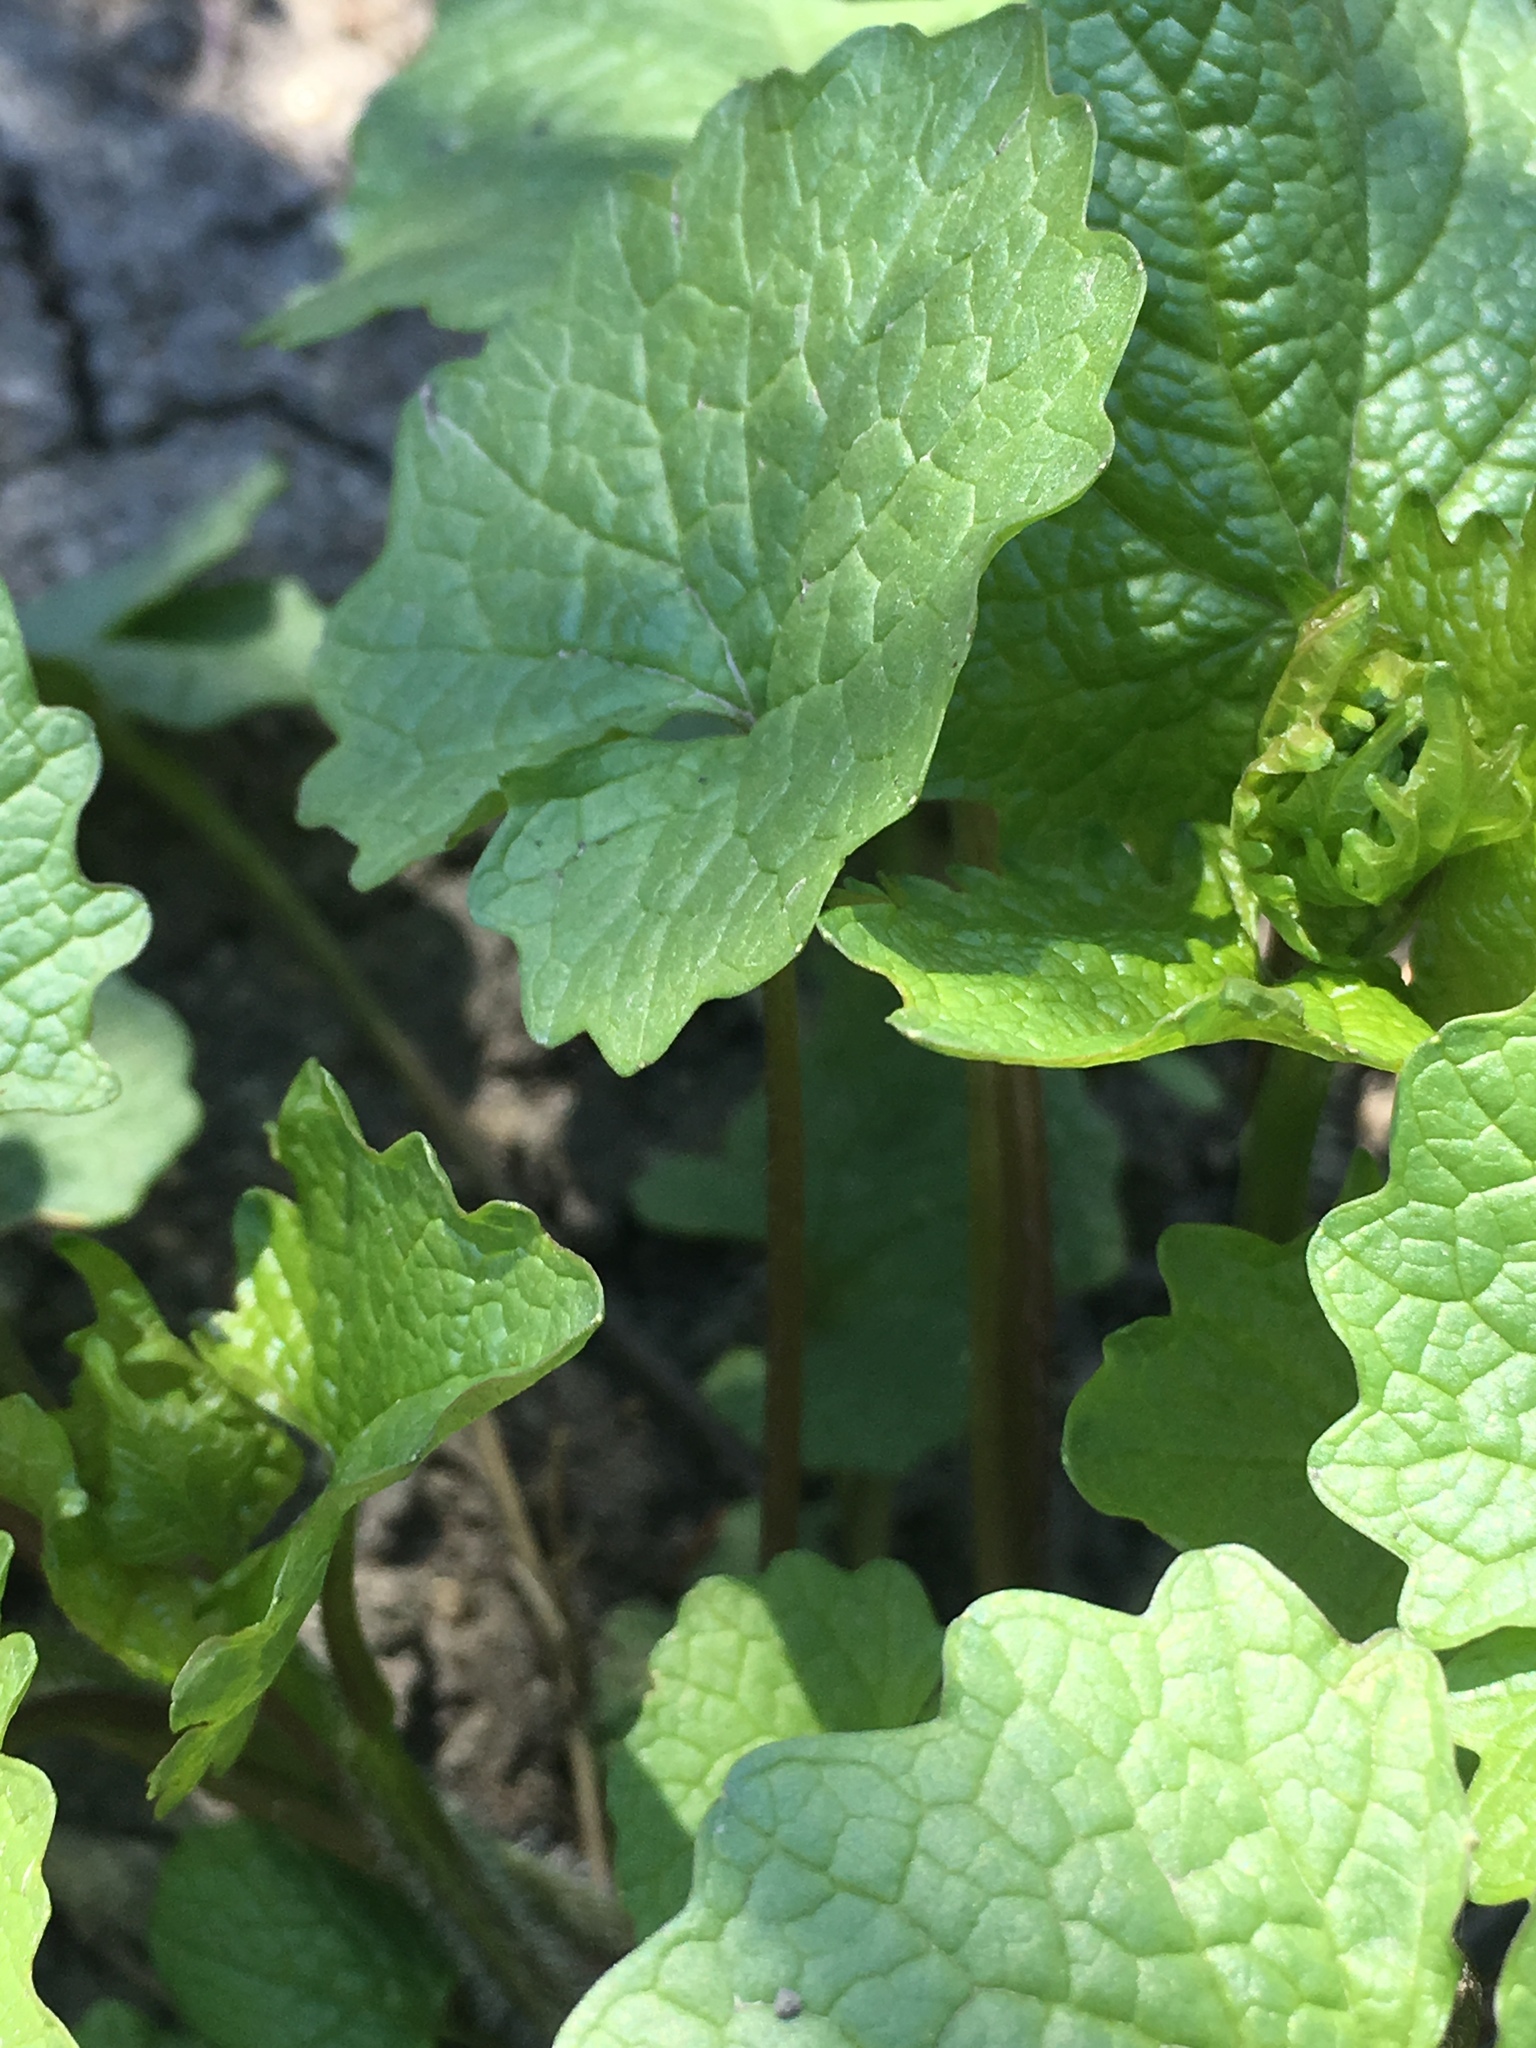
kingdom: Plantae
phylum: Tracheophyta
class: Magnoliopsida
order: Brassicales
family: Brassicaceae
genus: Alliaria
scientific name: Alliaria petiolata
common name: Garlic mustard
